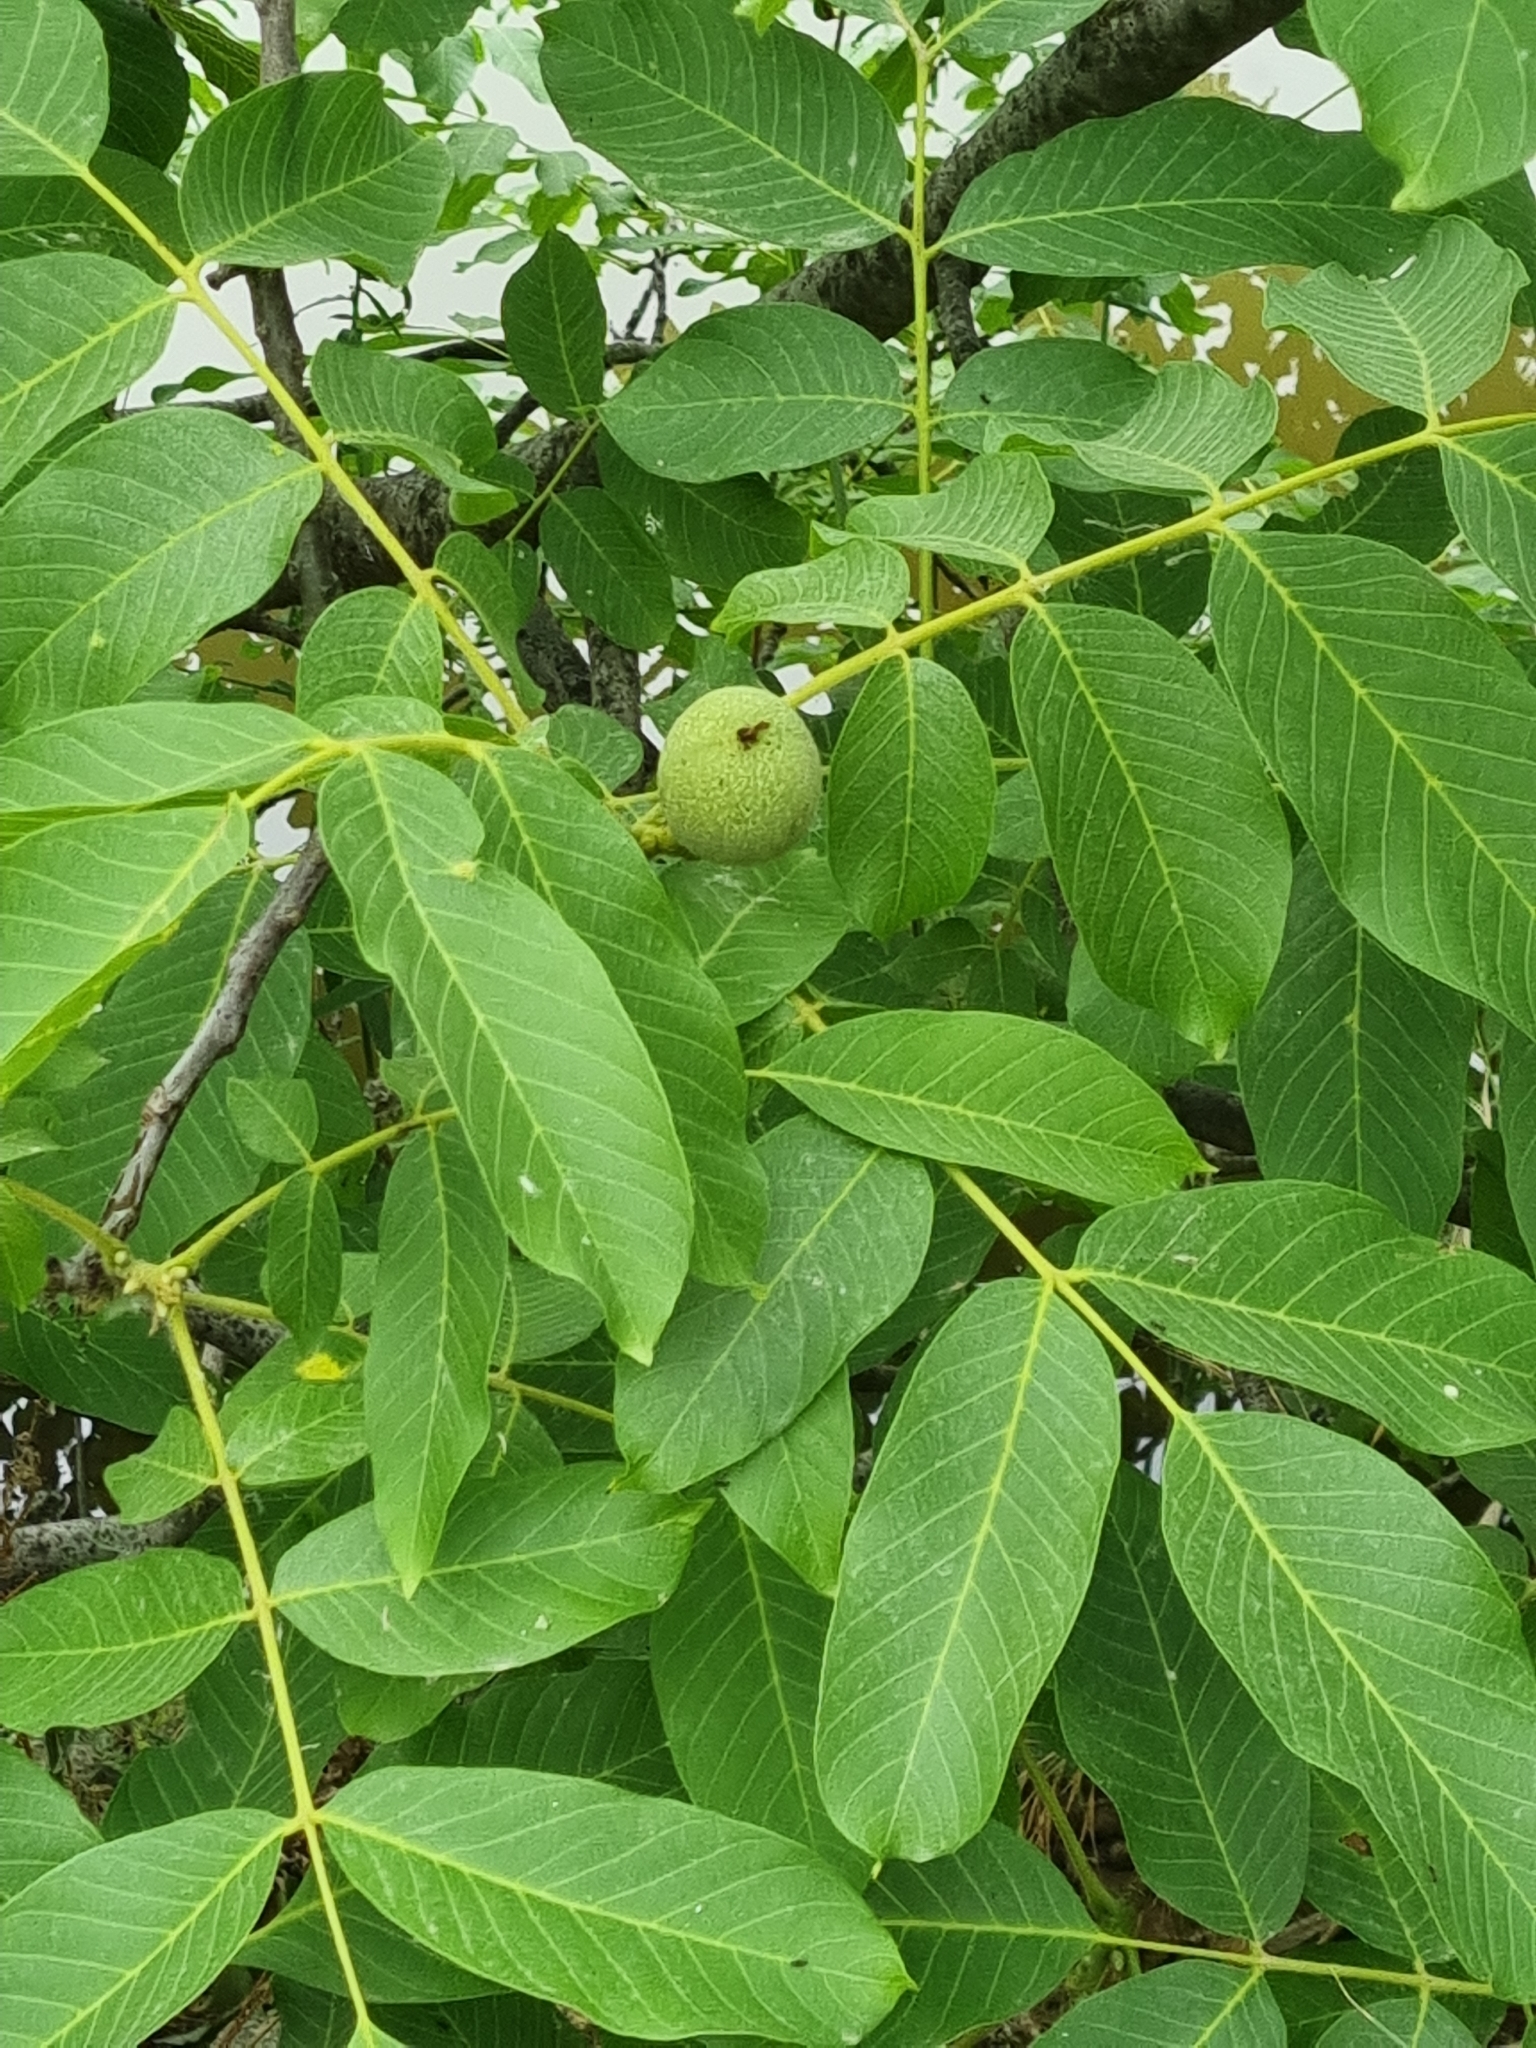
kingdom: Plantae
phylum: Tracheophyta
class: Magnoliopsida
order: Fagales
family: Juglandaceae
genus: Juglans
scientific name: Juglans regia
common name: Walnut
